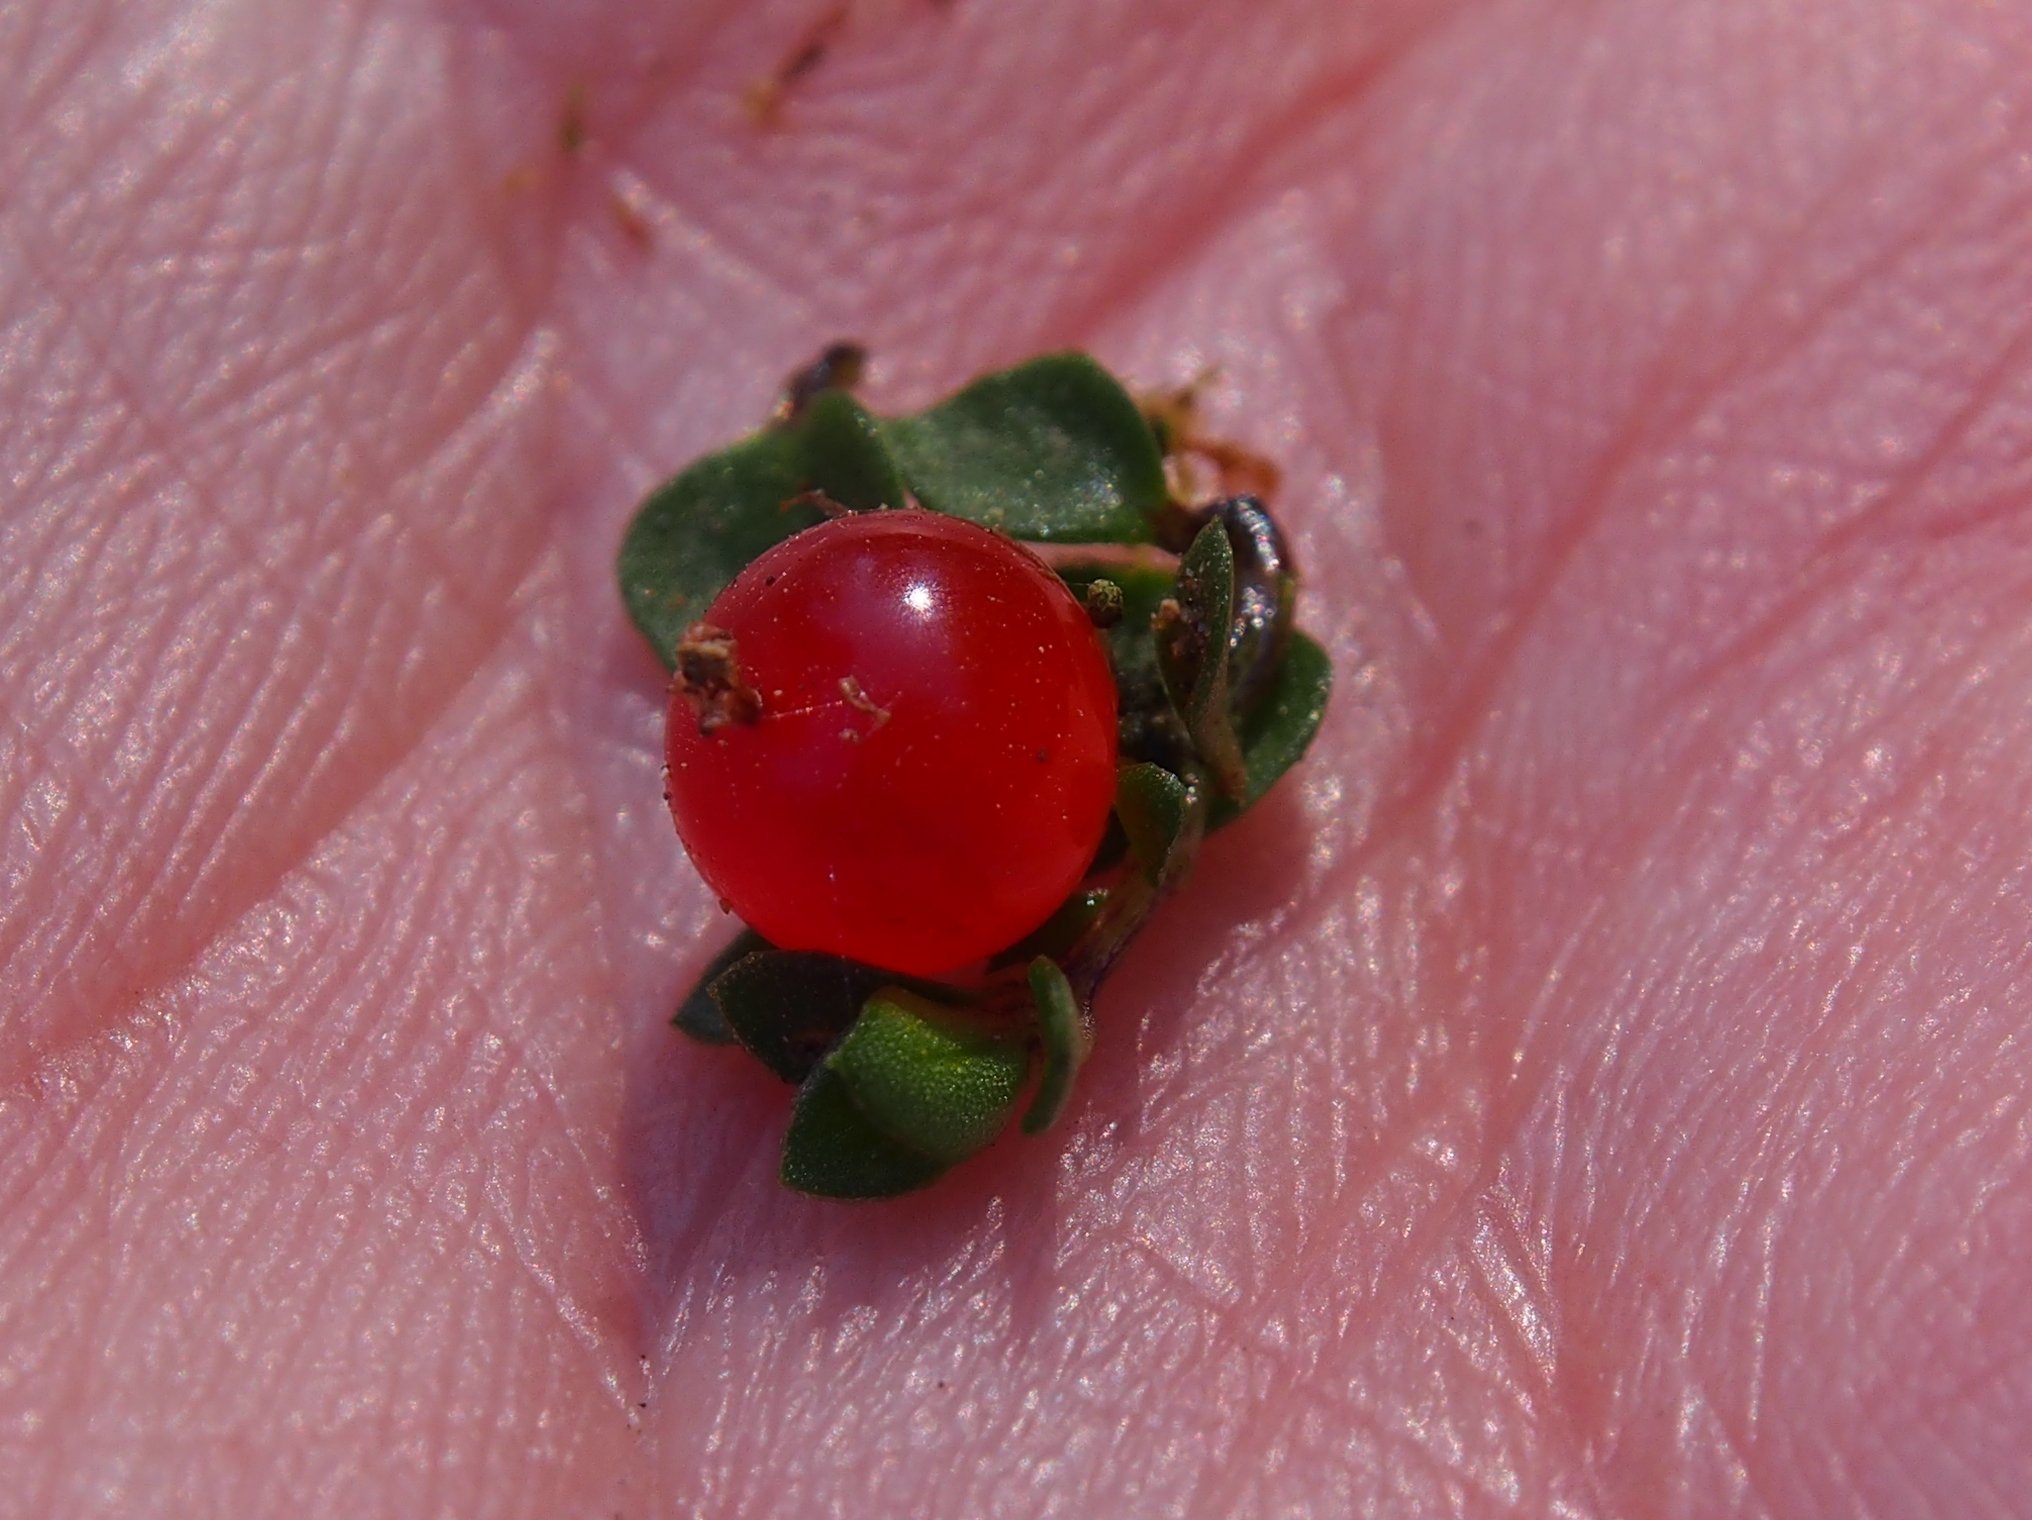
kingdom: Plantae
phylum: Tracheophyta
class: Magnoliopsida
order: Gentianales
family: Rubiaceae
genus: Nertera
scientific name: Nertera granadensis
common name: Beadplant
